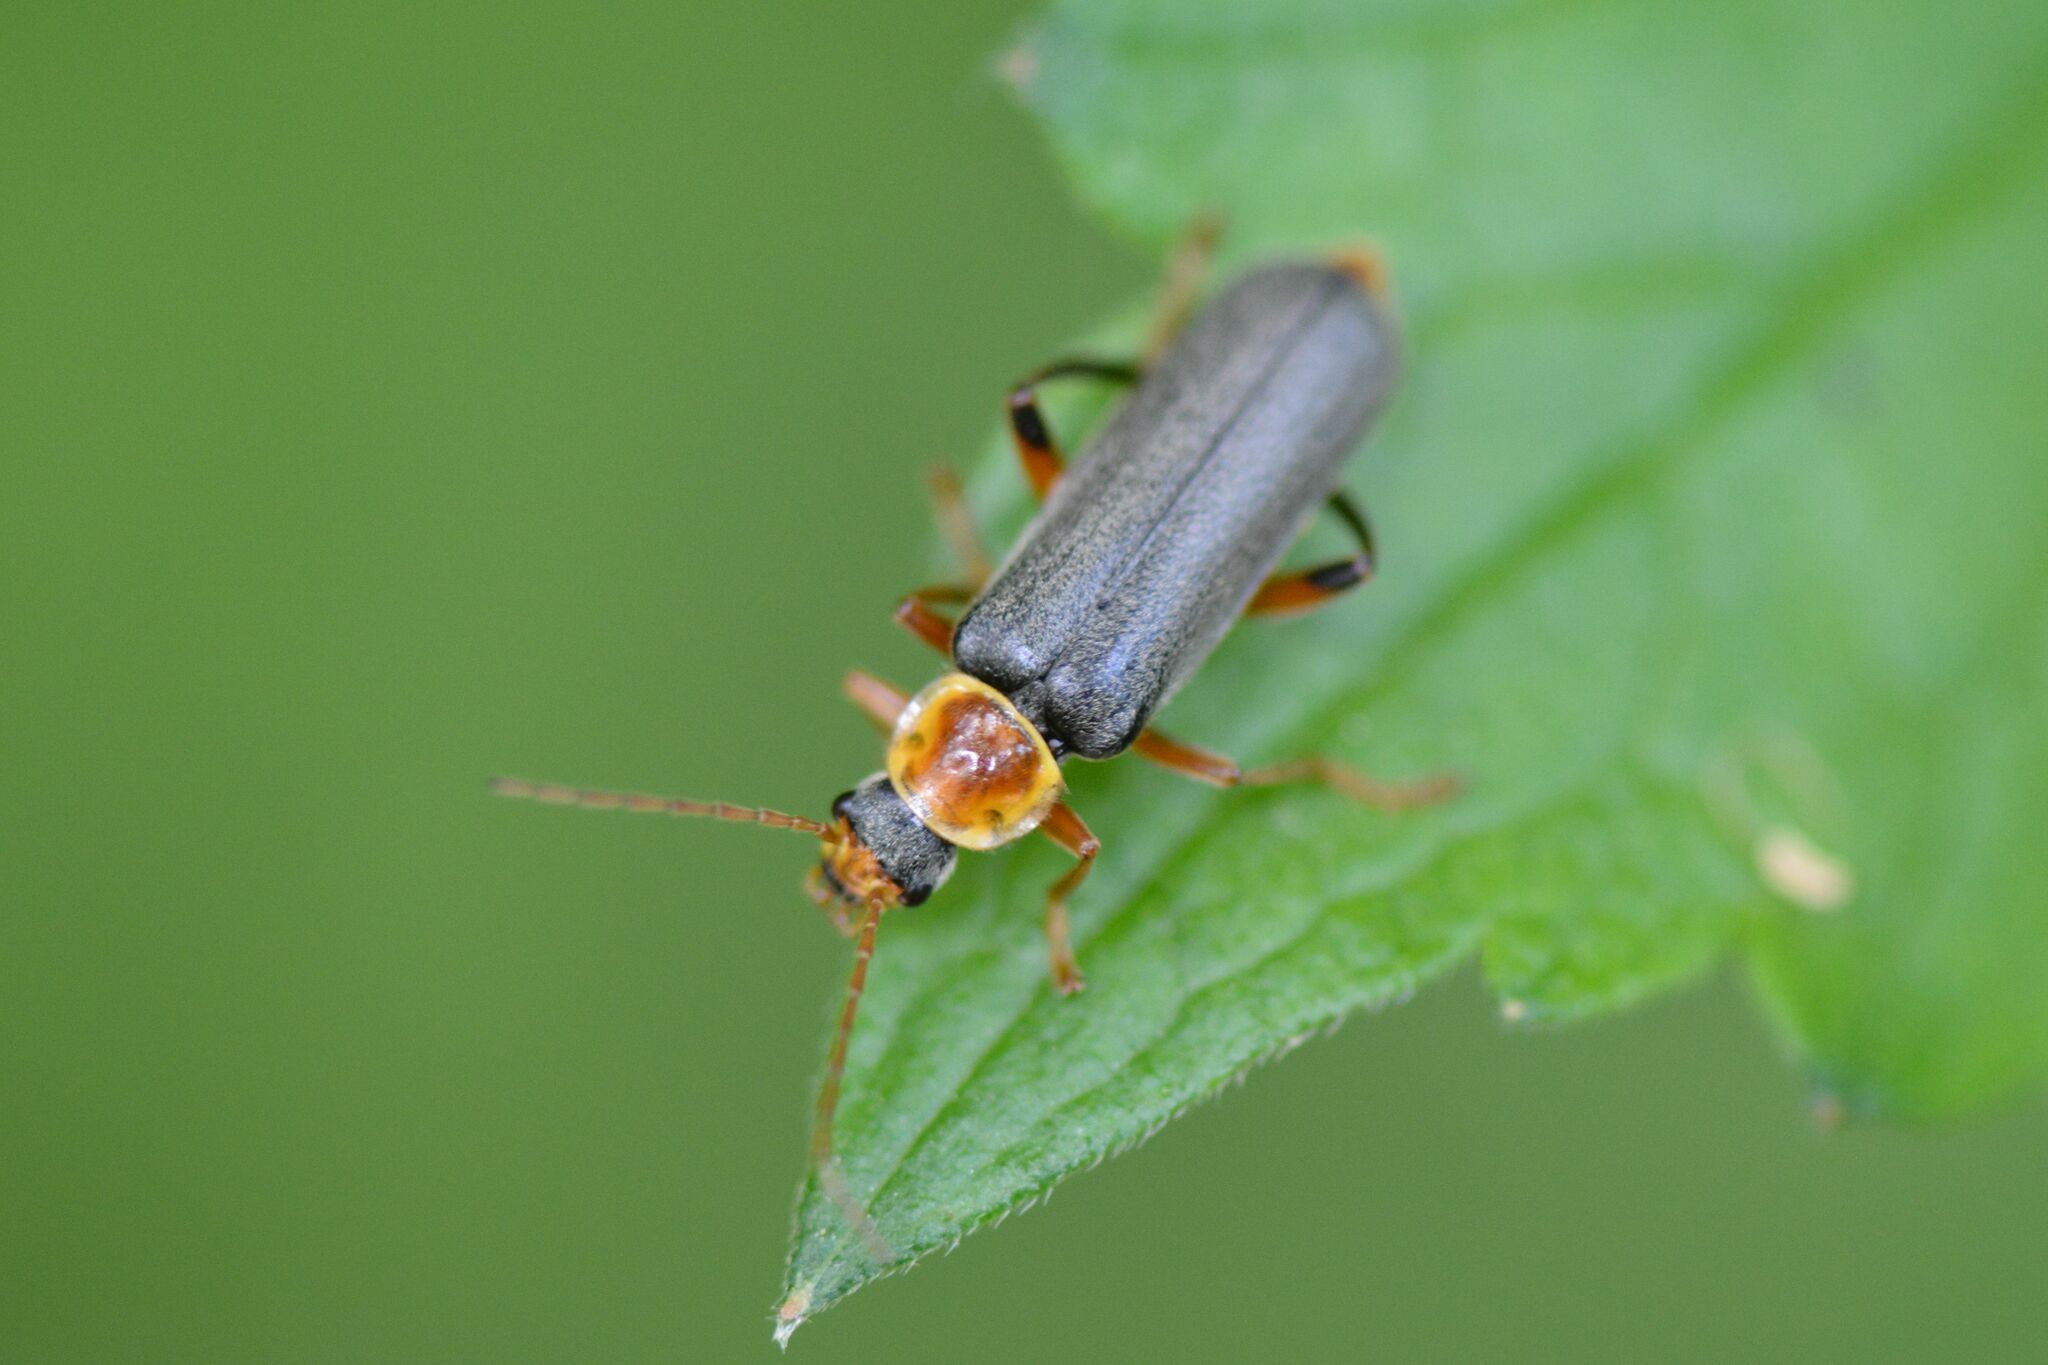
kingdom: Animalia
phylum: Arthropoda
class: Insecta
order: Coleoptera
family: Cantharidae
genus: Cantharis
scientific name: Cantharis nigricans
